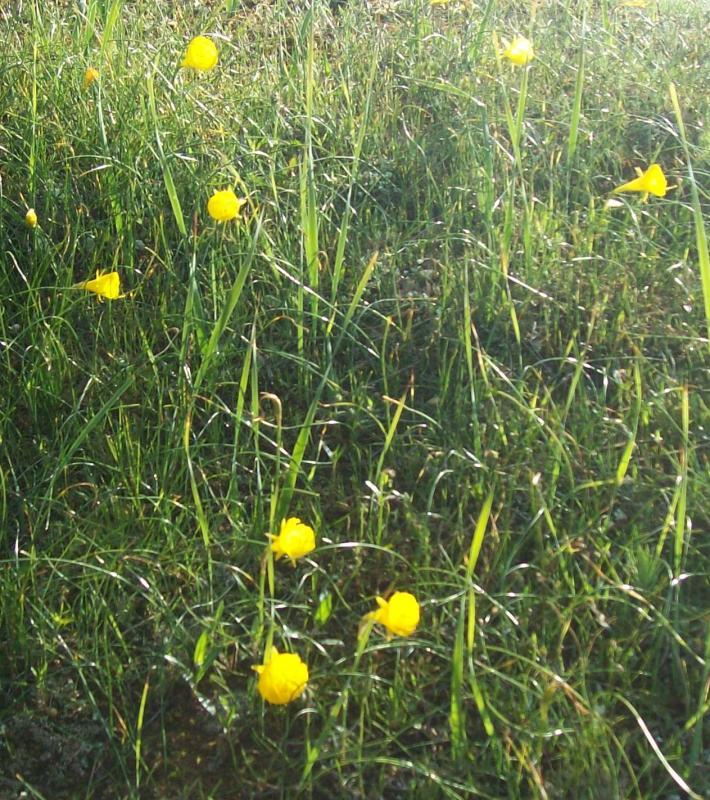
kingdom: Plantae
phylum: Tracheophyta
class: Liliopsida
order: Asparagales
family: Amaryllidaceae
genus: Narcissus
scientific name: Narcissus bulbocodium
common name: Hoop-petticoat daffodil
